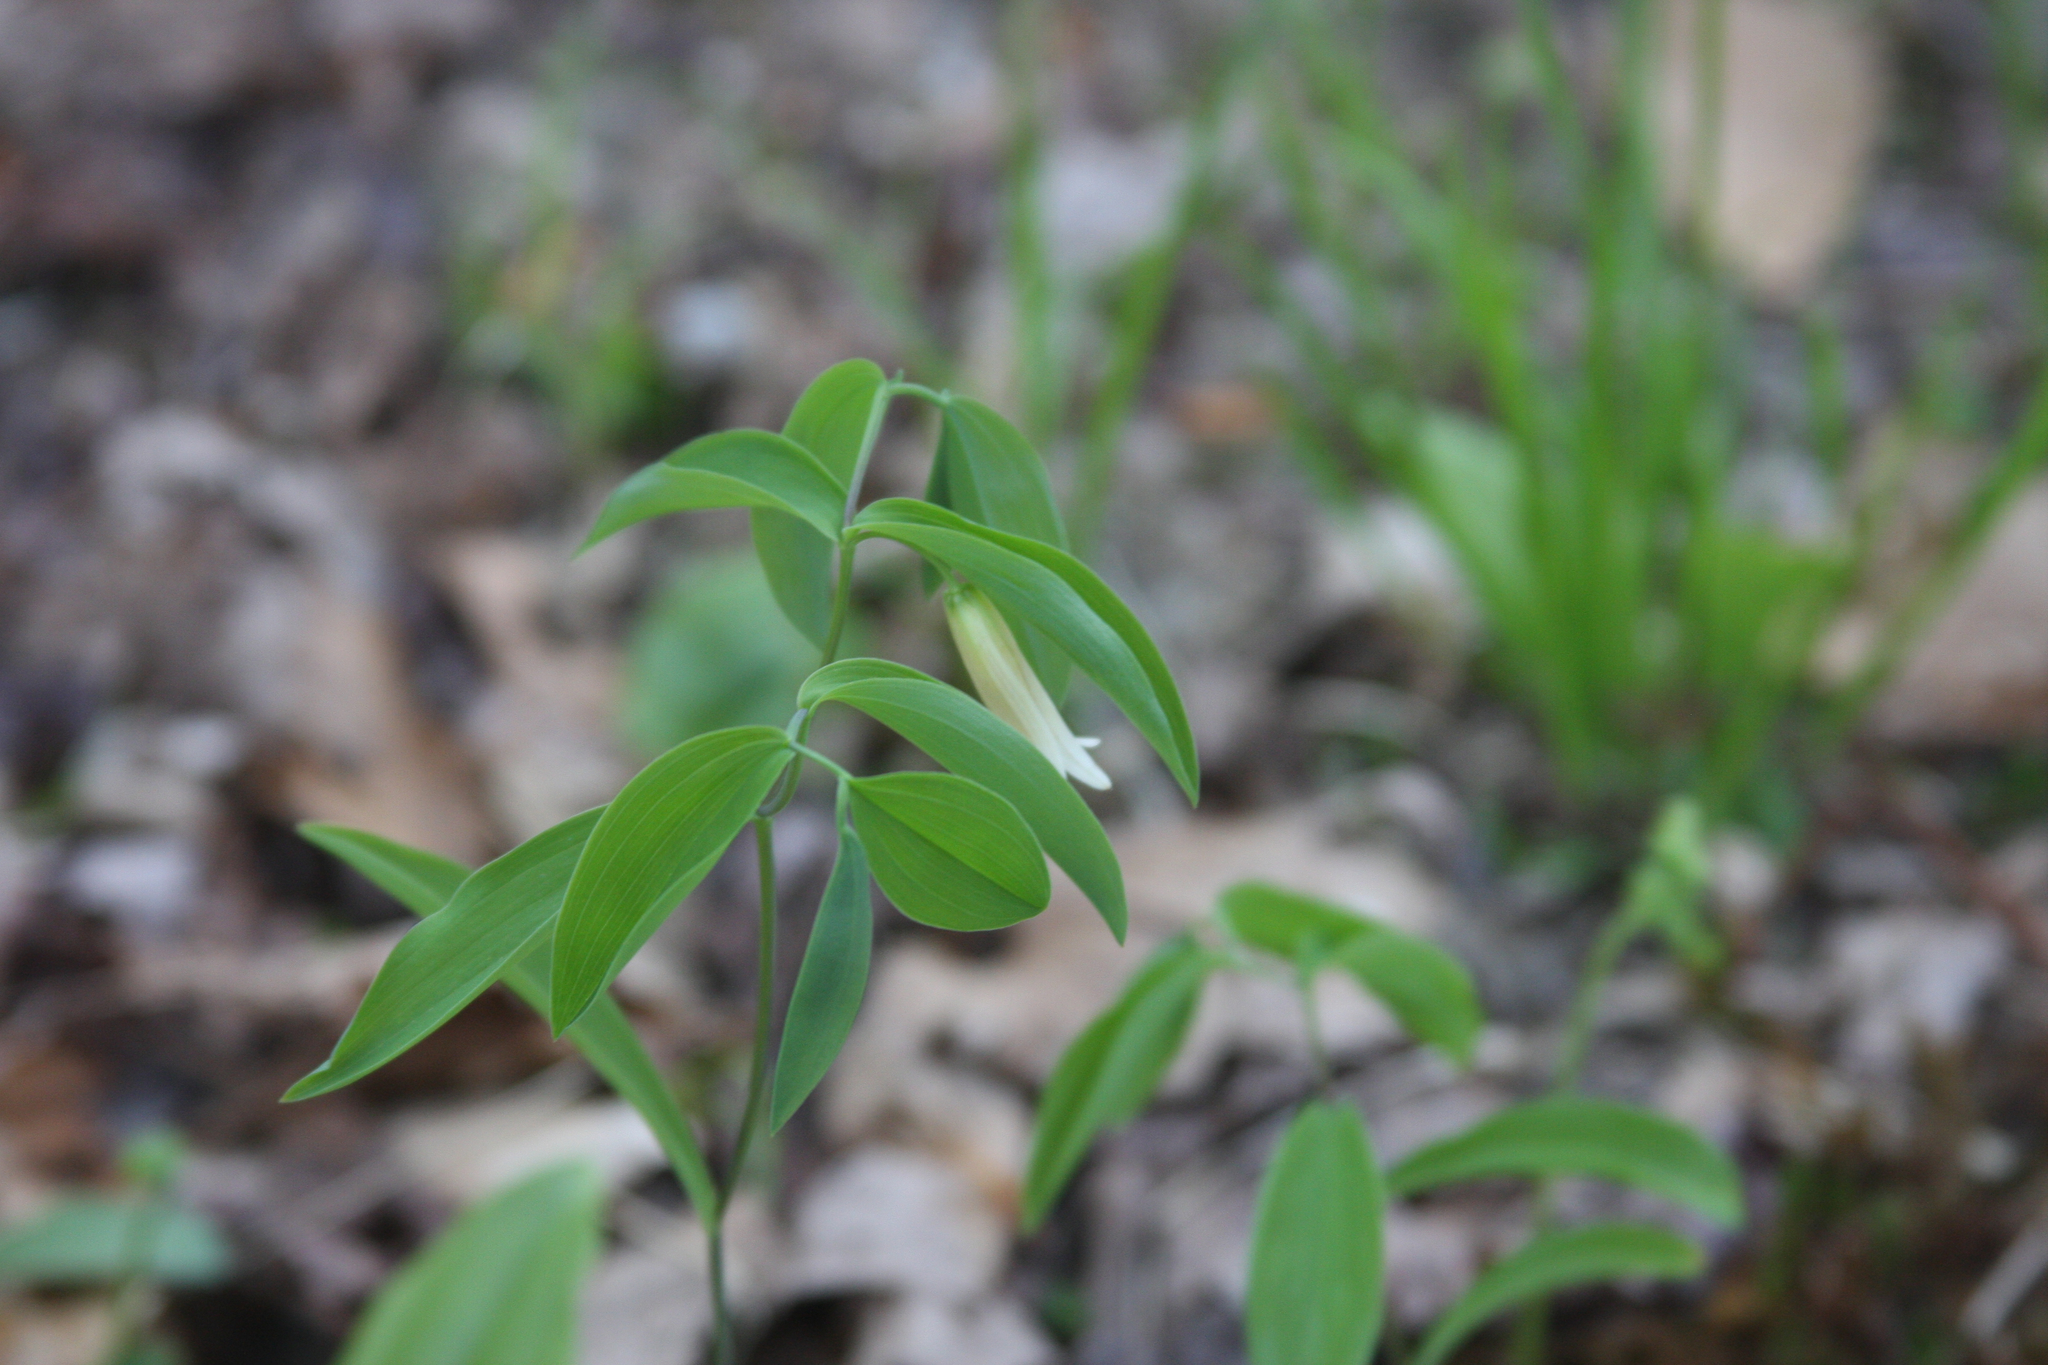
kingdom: Plantae
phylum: Tracheophyta
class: Liliopsida
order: Liliales
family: Colchicaceae
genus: Uvularia
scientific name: Uvularia sessilifolia
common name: Straw-lily
